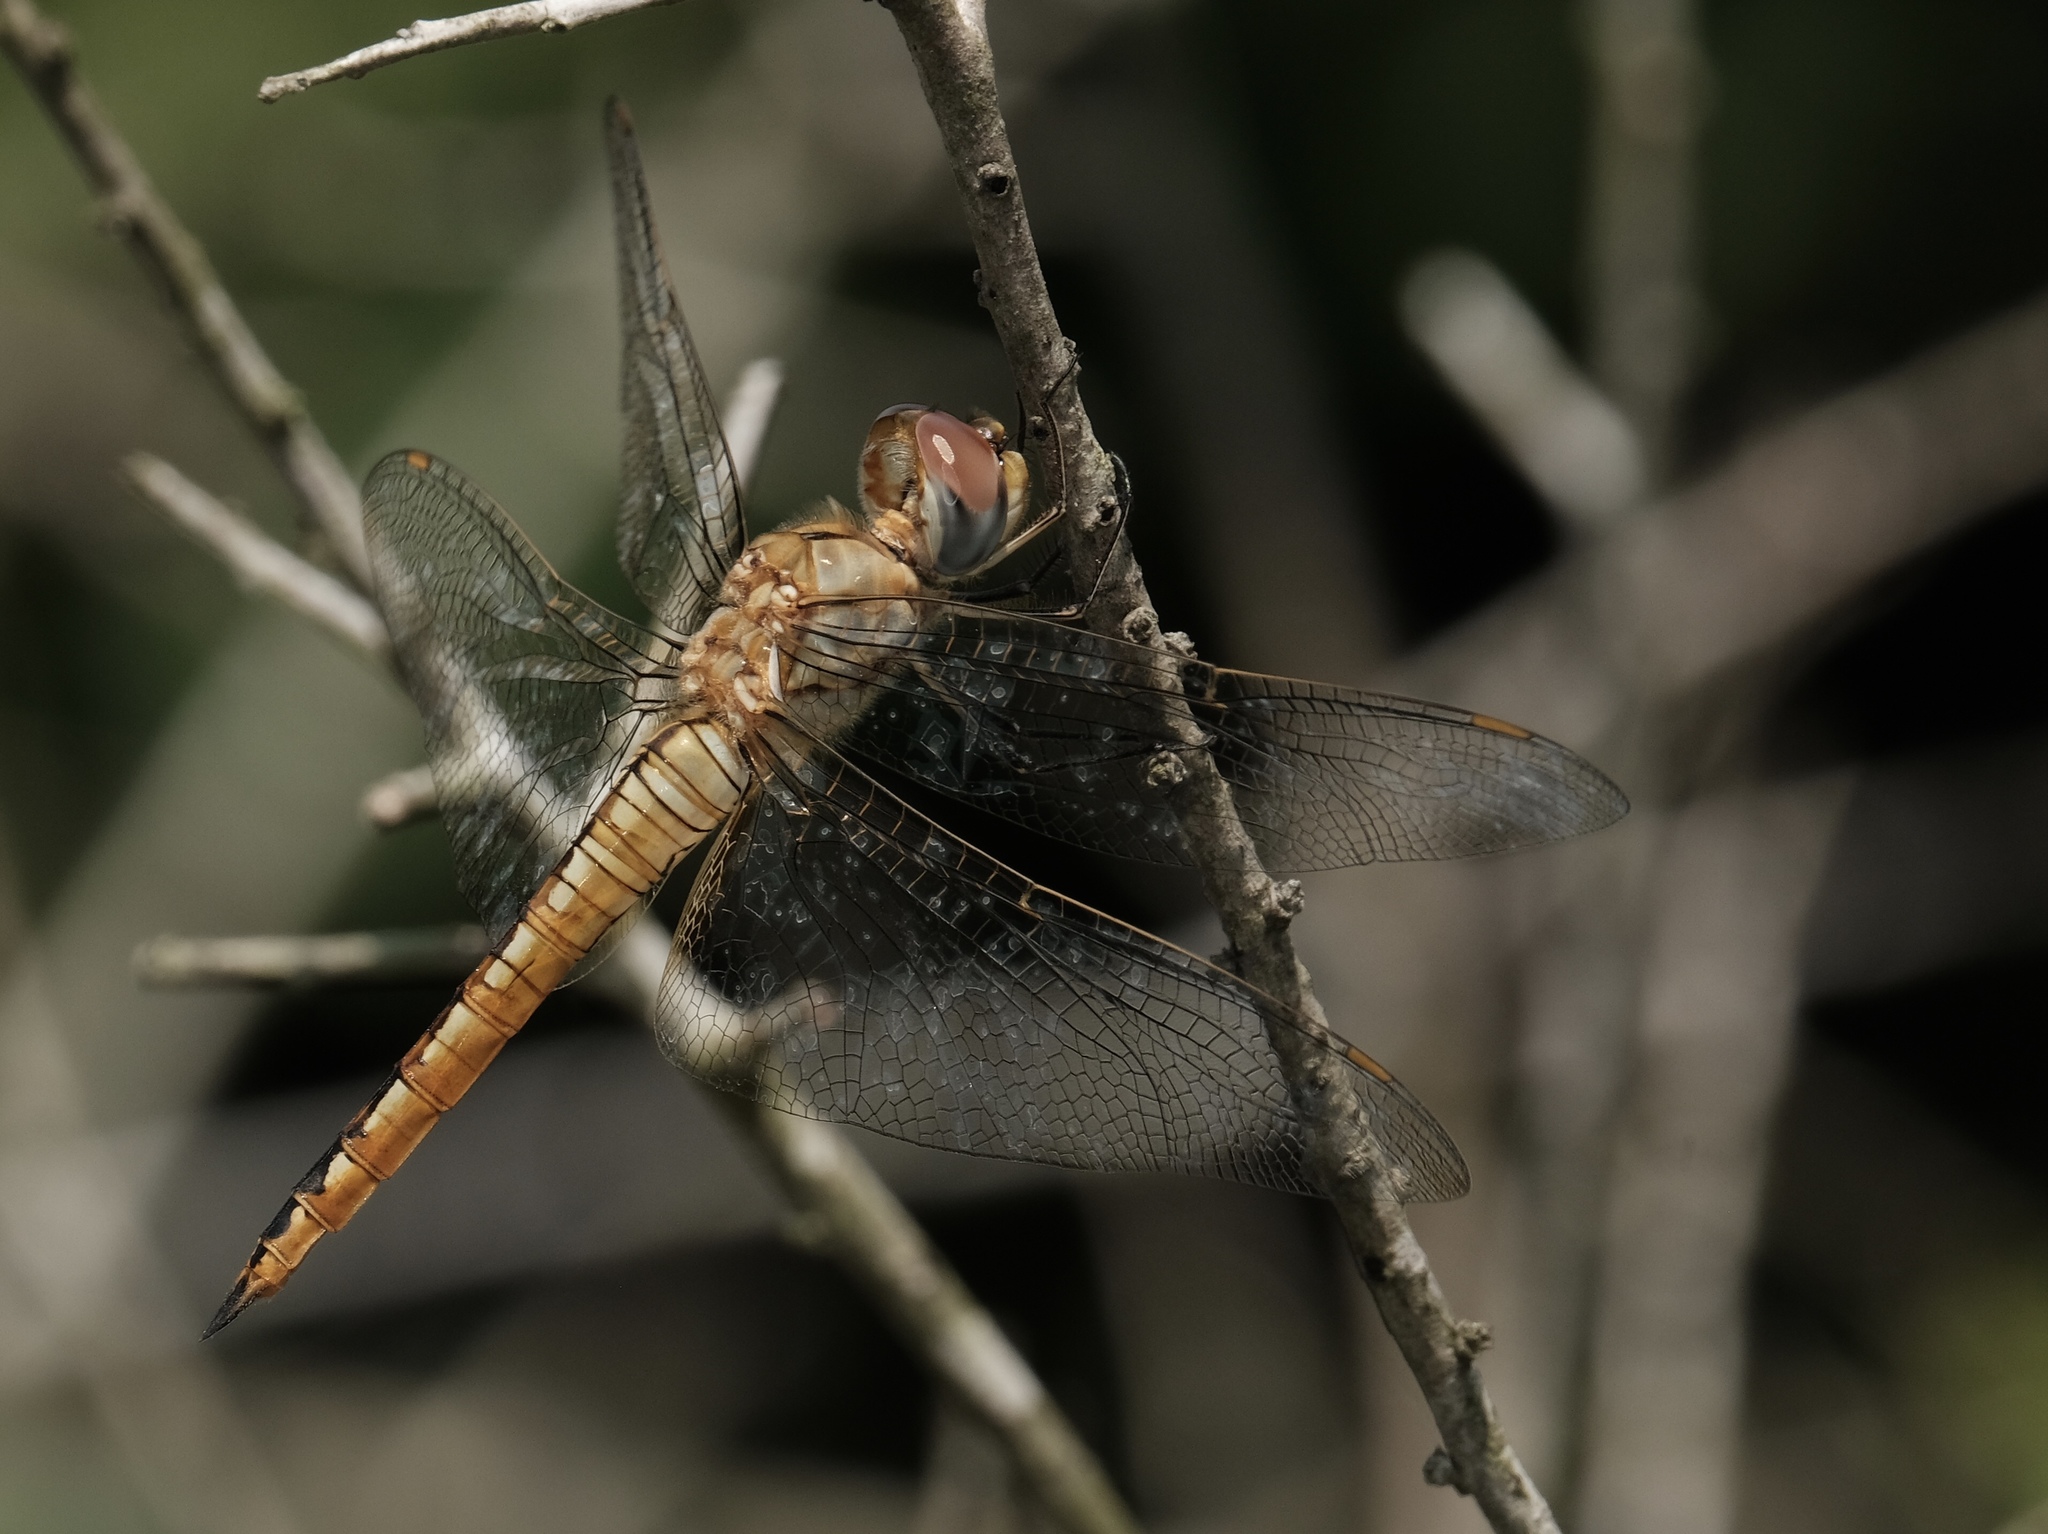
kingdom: Animalia
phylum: Arthropoda
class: Insecta
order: Odonata
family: Libellulidae
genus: Pantala
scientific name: Pantala flavescens
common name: Wandering glider
